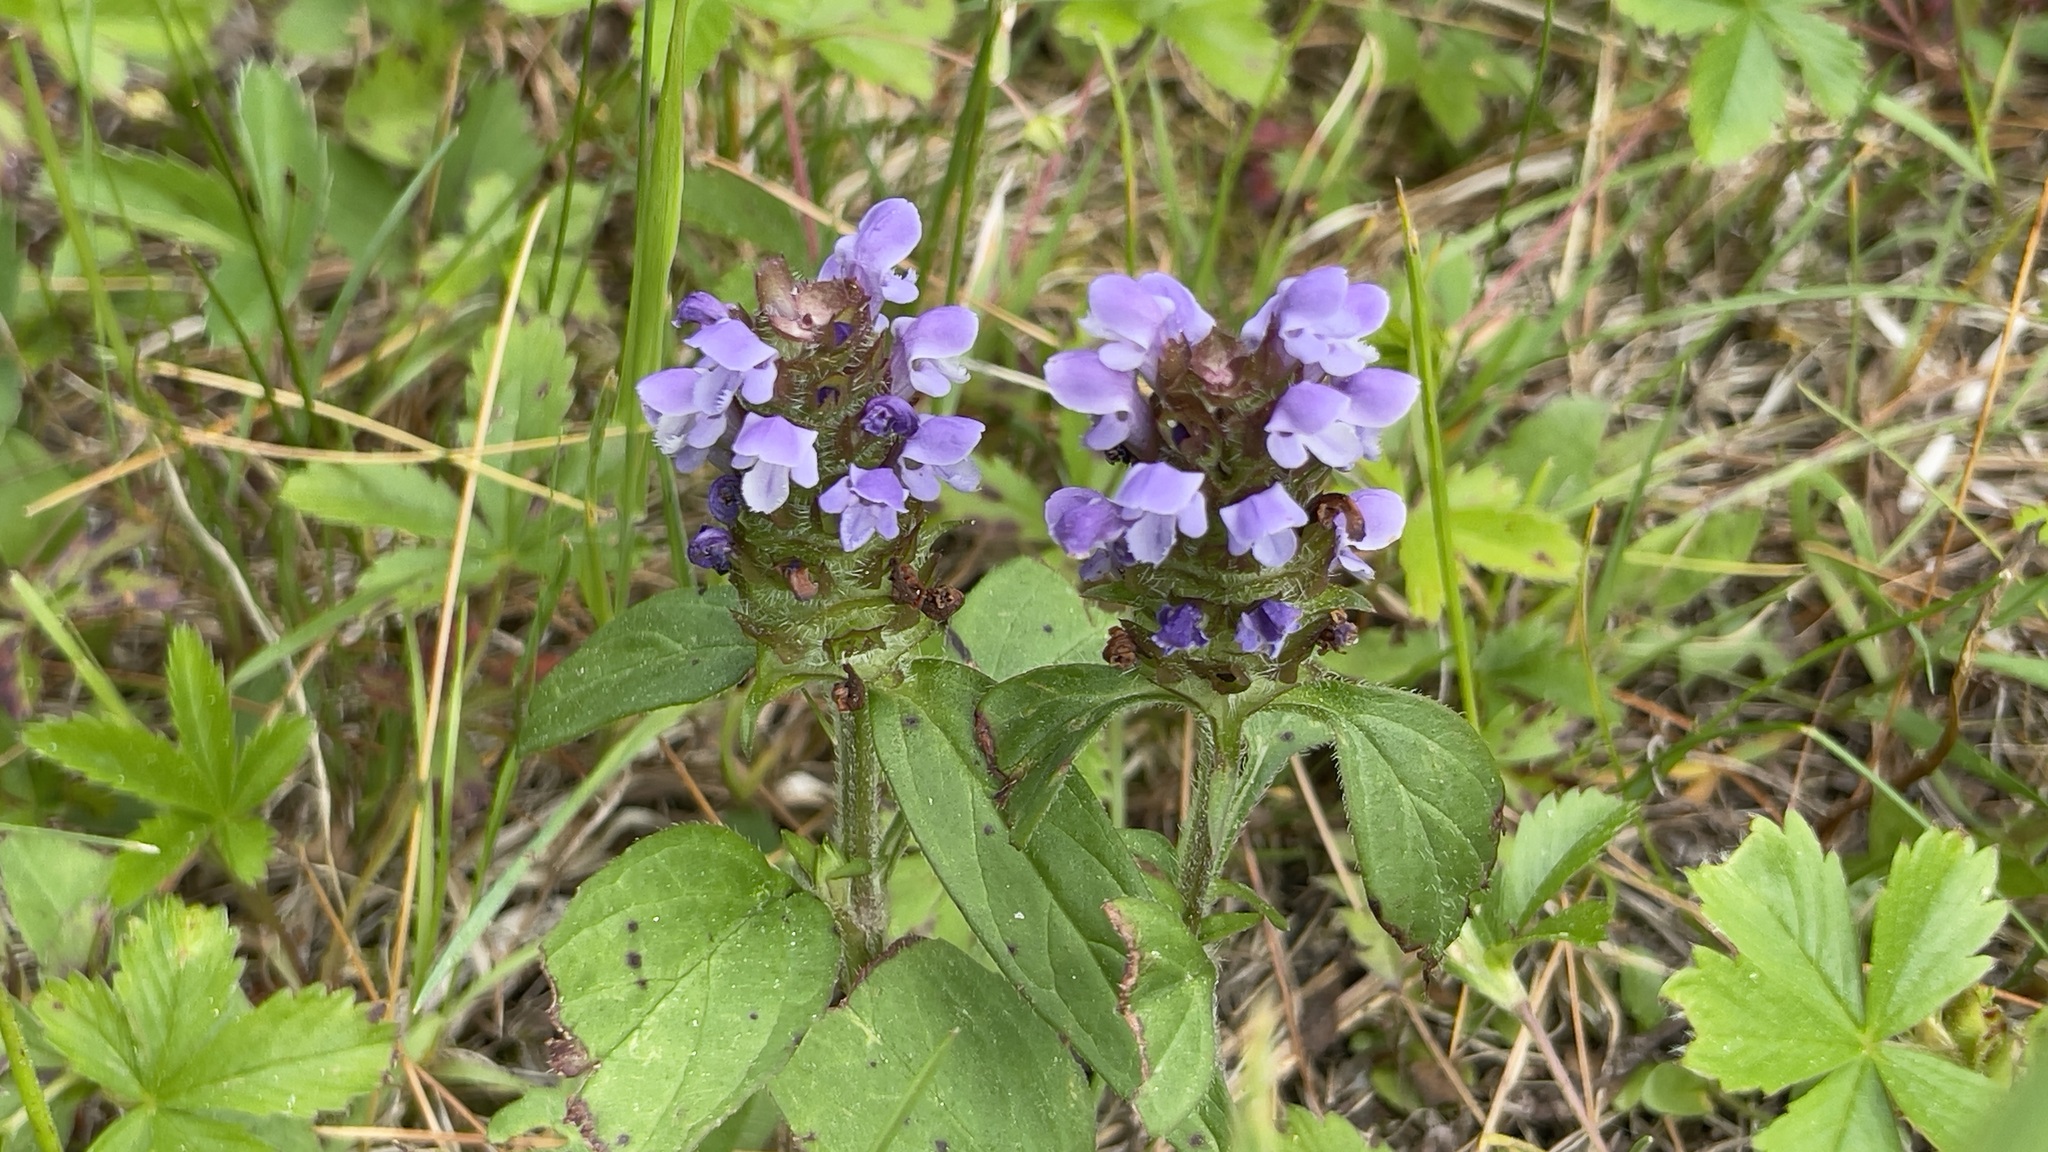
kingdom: Plantae
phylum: Tracheophyta
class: Magnoliopsida
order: Lamiales
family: Lamiaceae
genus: Prunella
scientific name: Prunella vulgaris
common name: Heal-all
